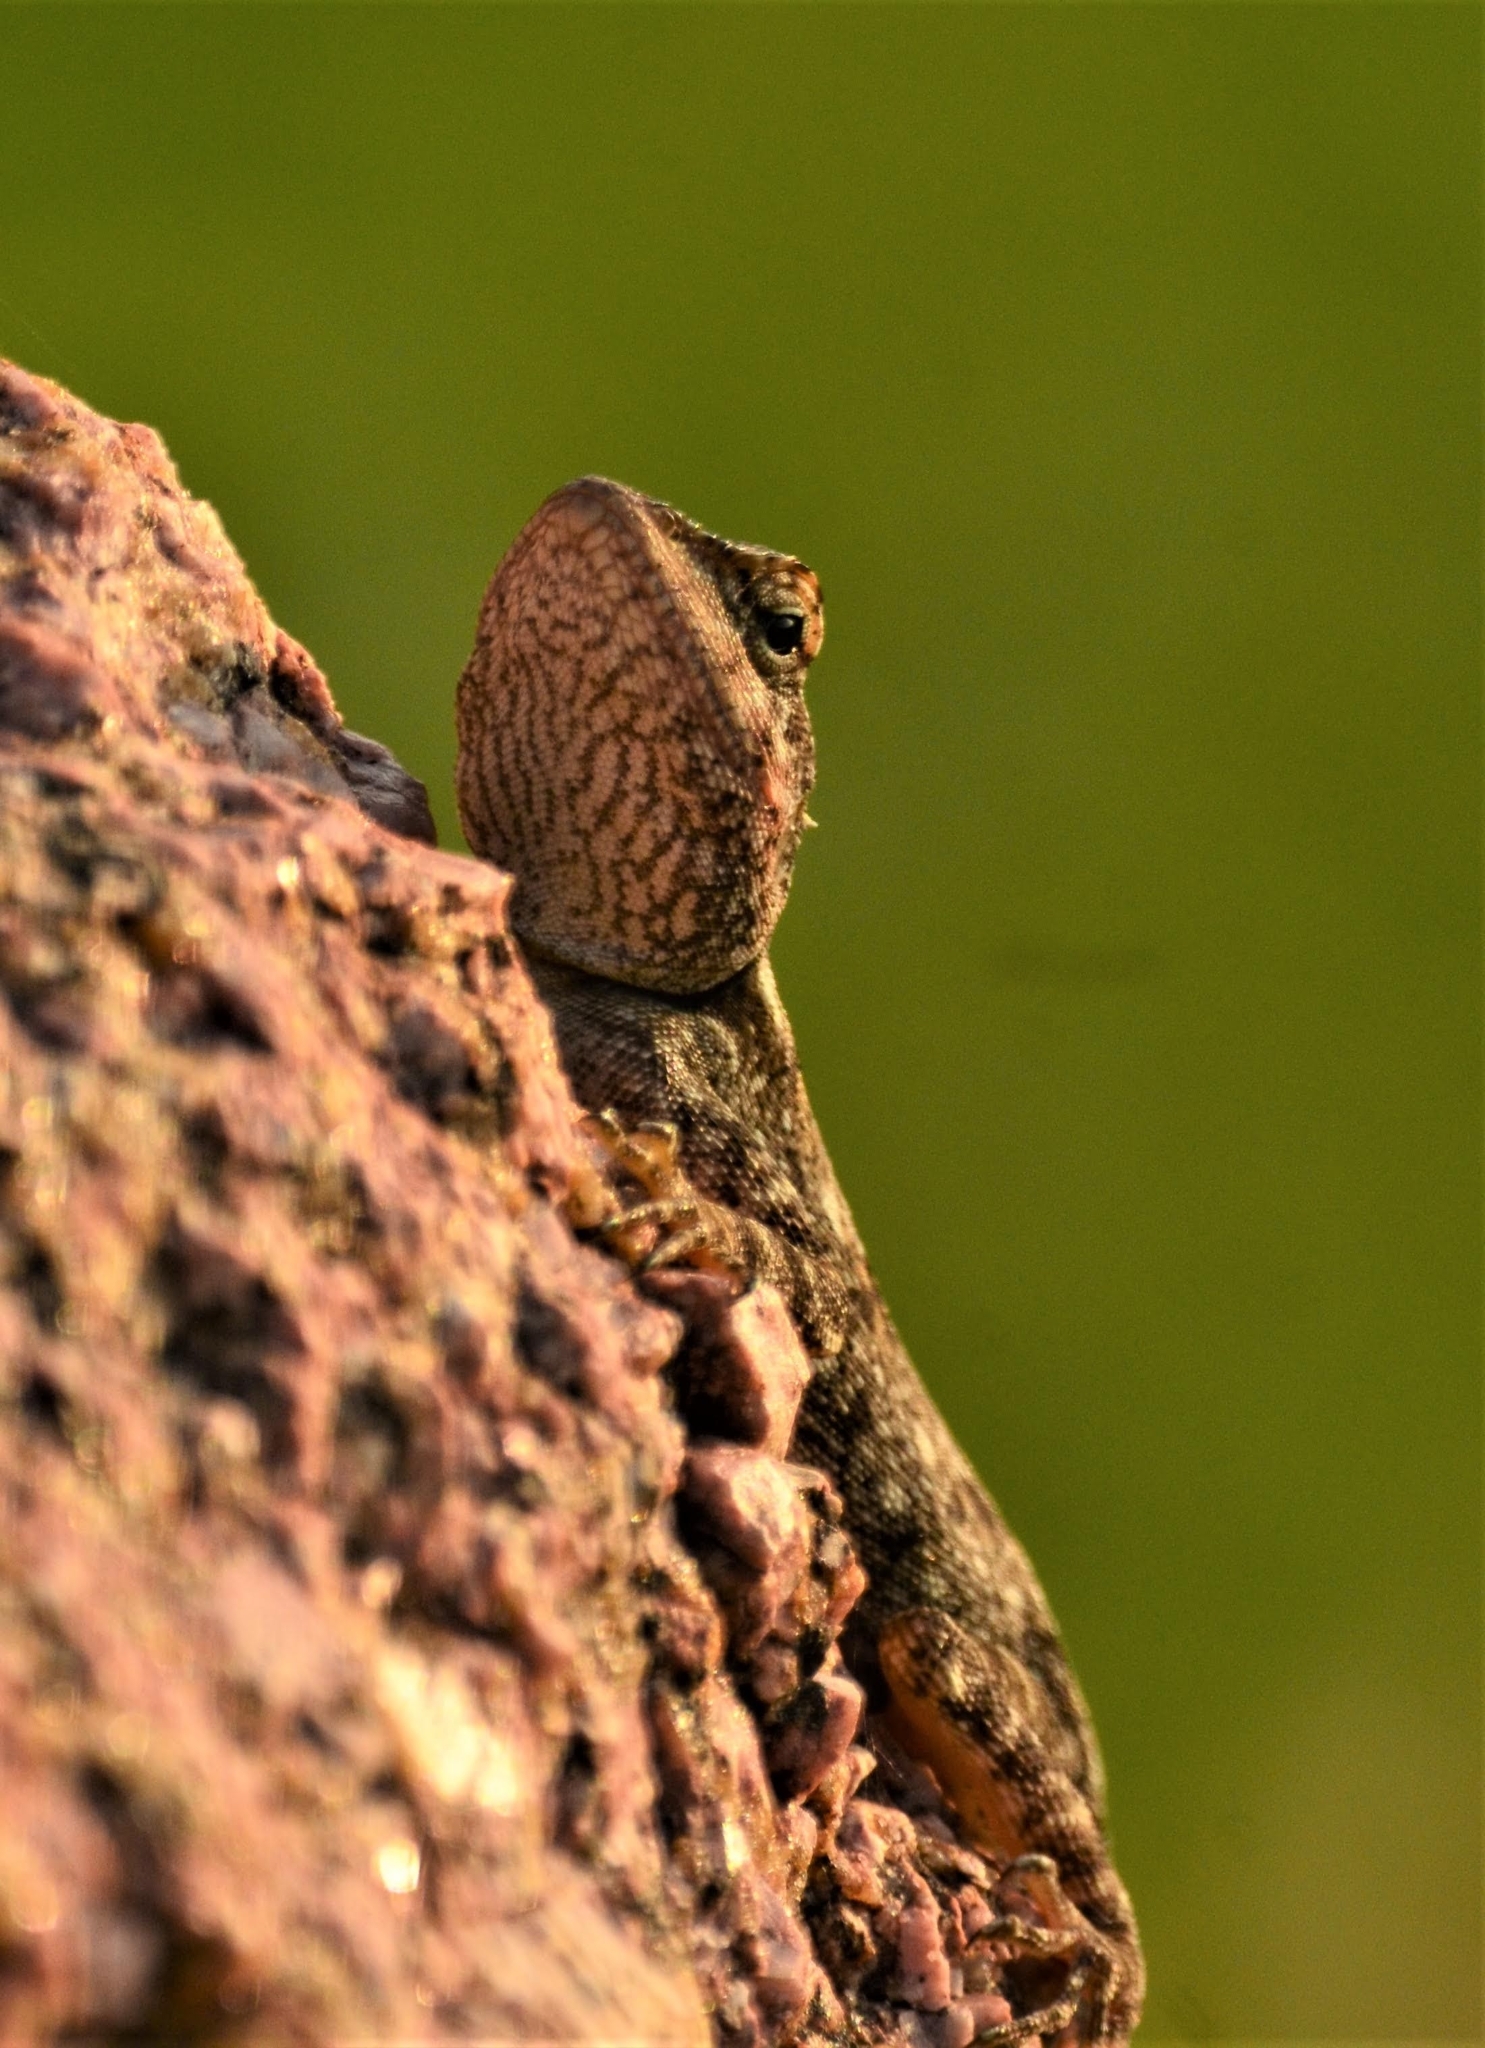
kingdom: Animalia
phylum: Chordata
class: Squamata
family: Agamidae
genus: Psammophilus
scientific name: Psammophilus dorsalis
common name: South indian rock agama
